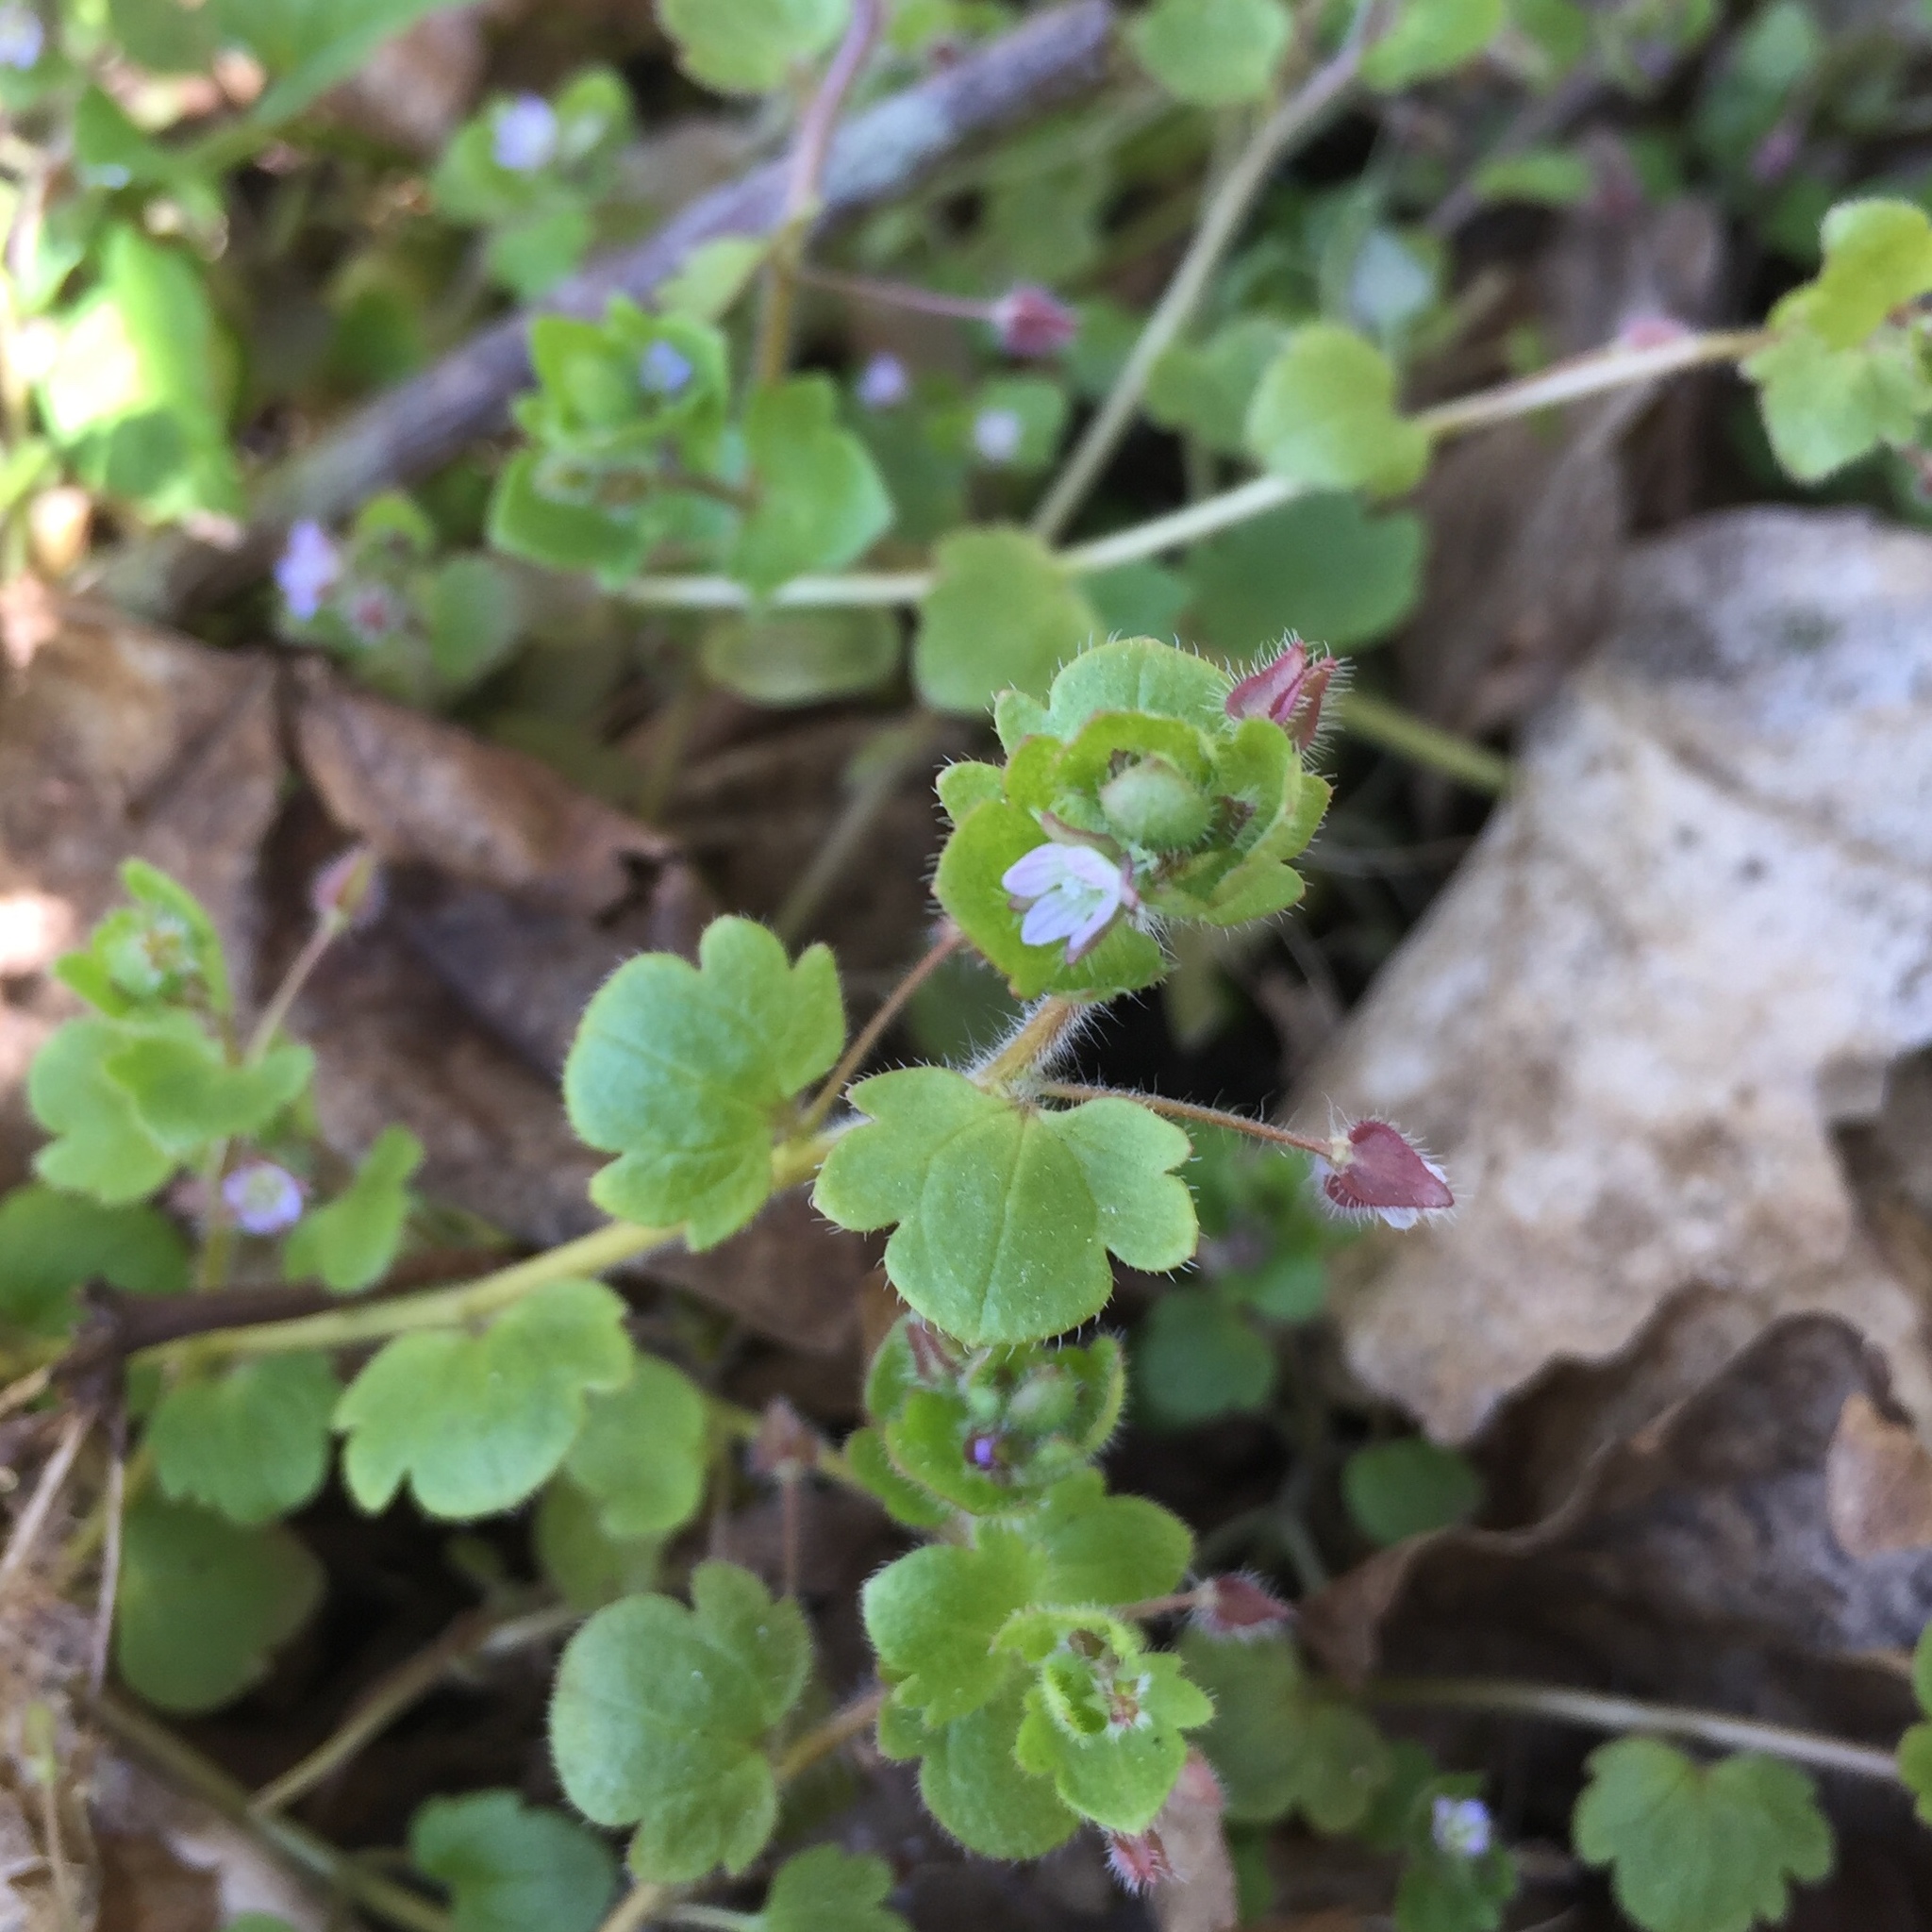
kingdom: Plantae
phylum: Tracheophyta
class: Magnoliopsida
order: Lamiales
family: Plantaginaceae
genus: Veronica
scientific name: Veronica sublobata
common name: False ivy-leaved speedwell
